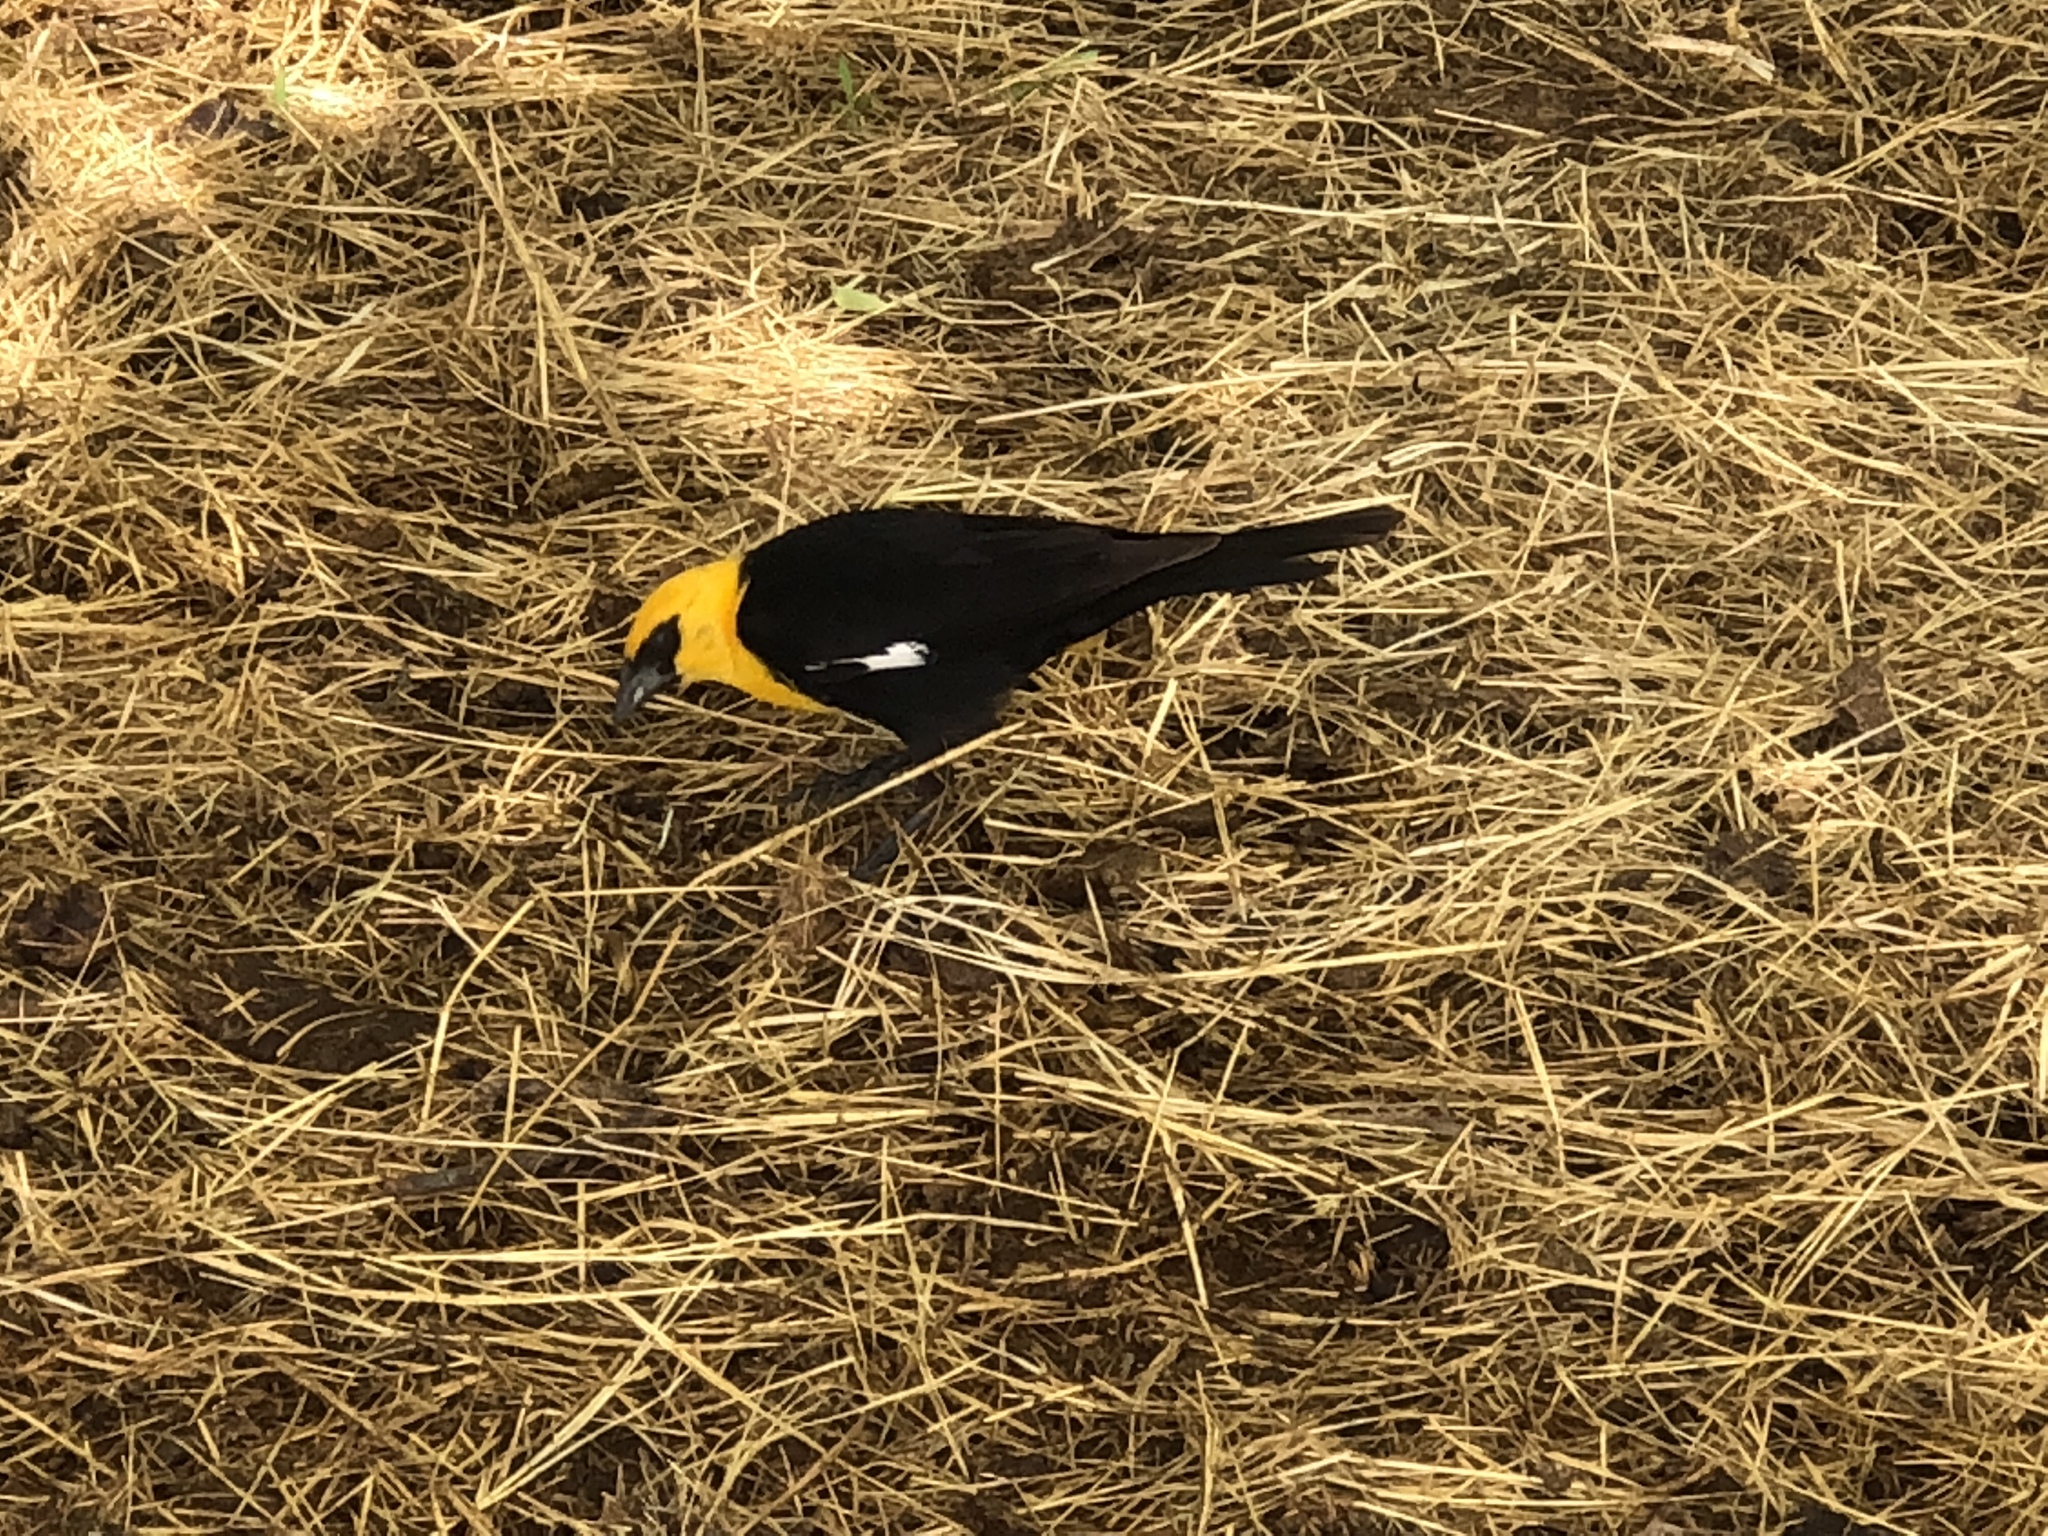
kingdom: Animalia
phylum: Chordata
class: Aves
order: Passeriformes
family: Icteridae
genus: Xanthocephalus
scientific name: Xanthocephalus xanthocephalus
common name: Yellow-headed blackbird
